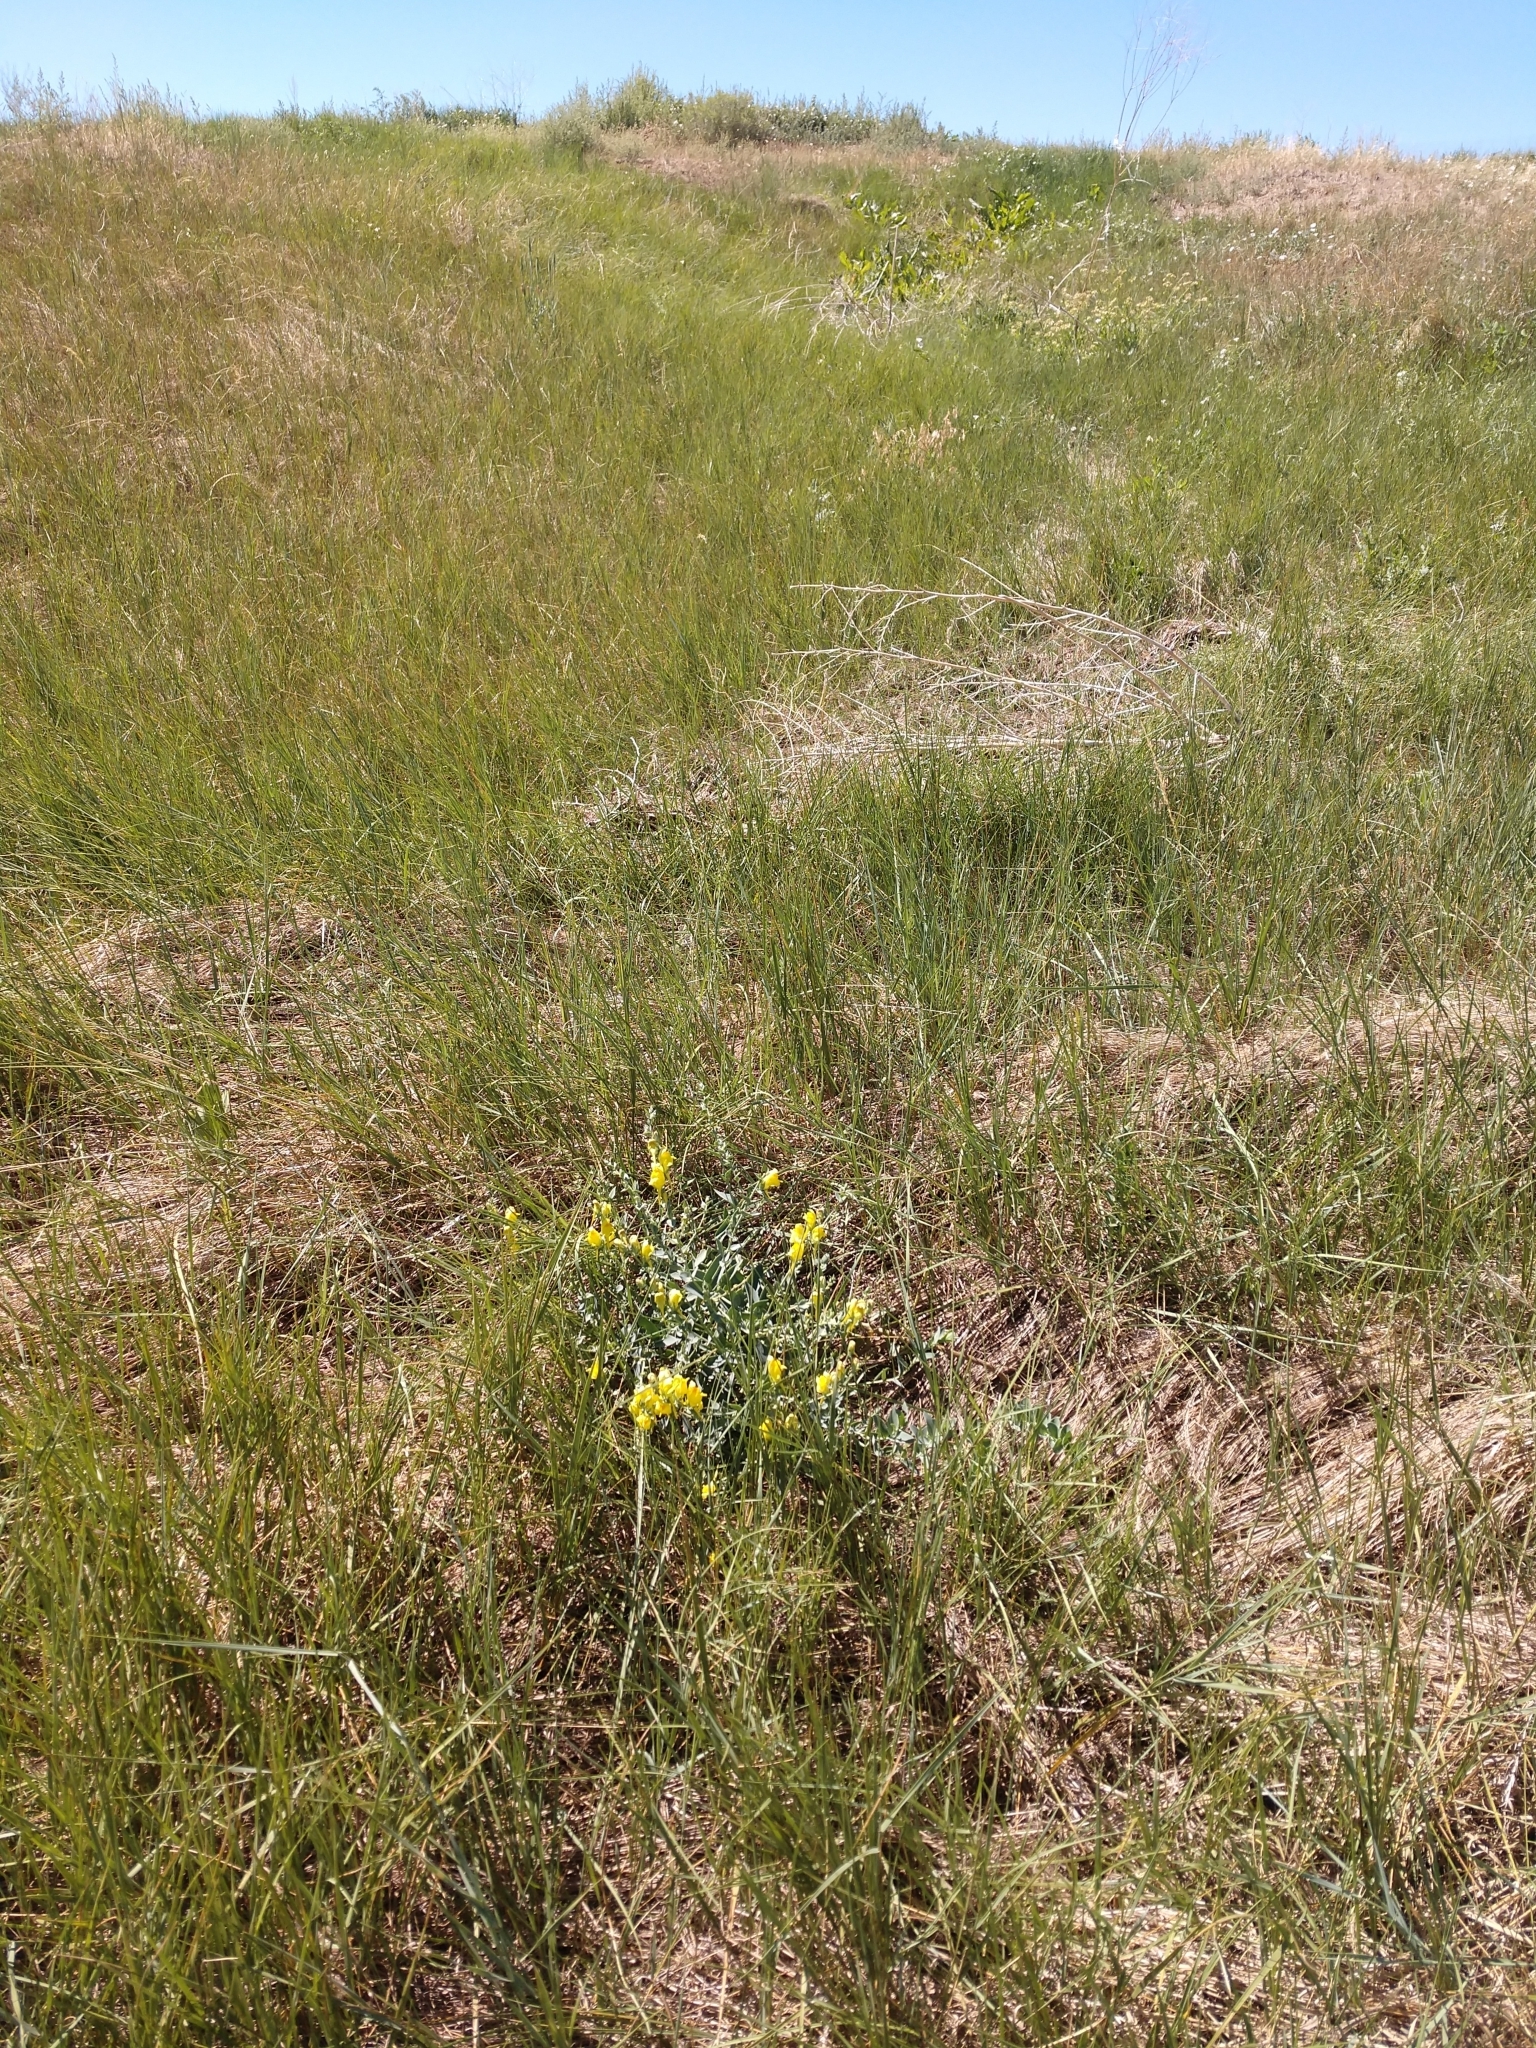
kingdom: Plantae
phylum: Tracheophyta
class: Magnoliopsida
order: Lamiales
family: Plantaginaceae
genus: Linaria
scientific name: Linaria dalmatica
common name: Dalmatian toadflax
